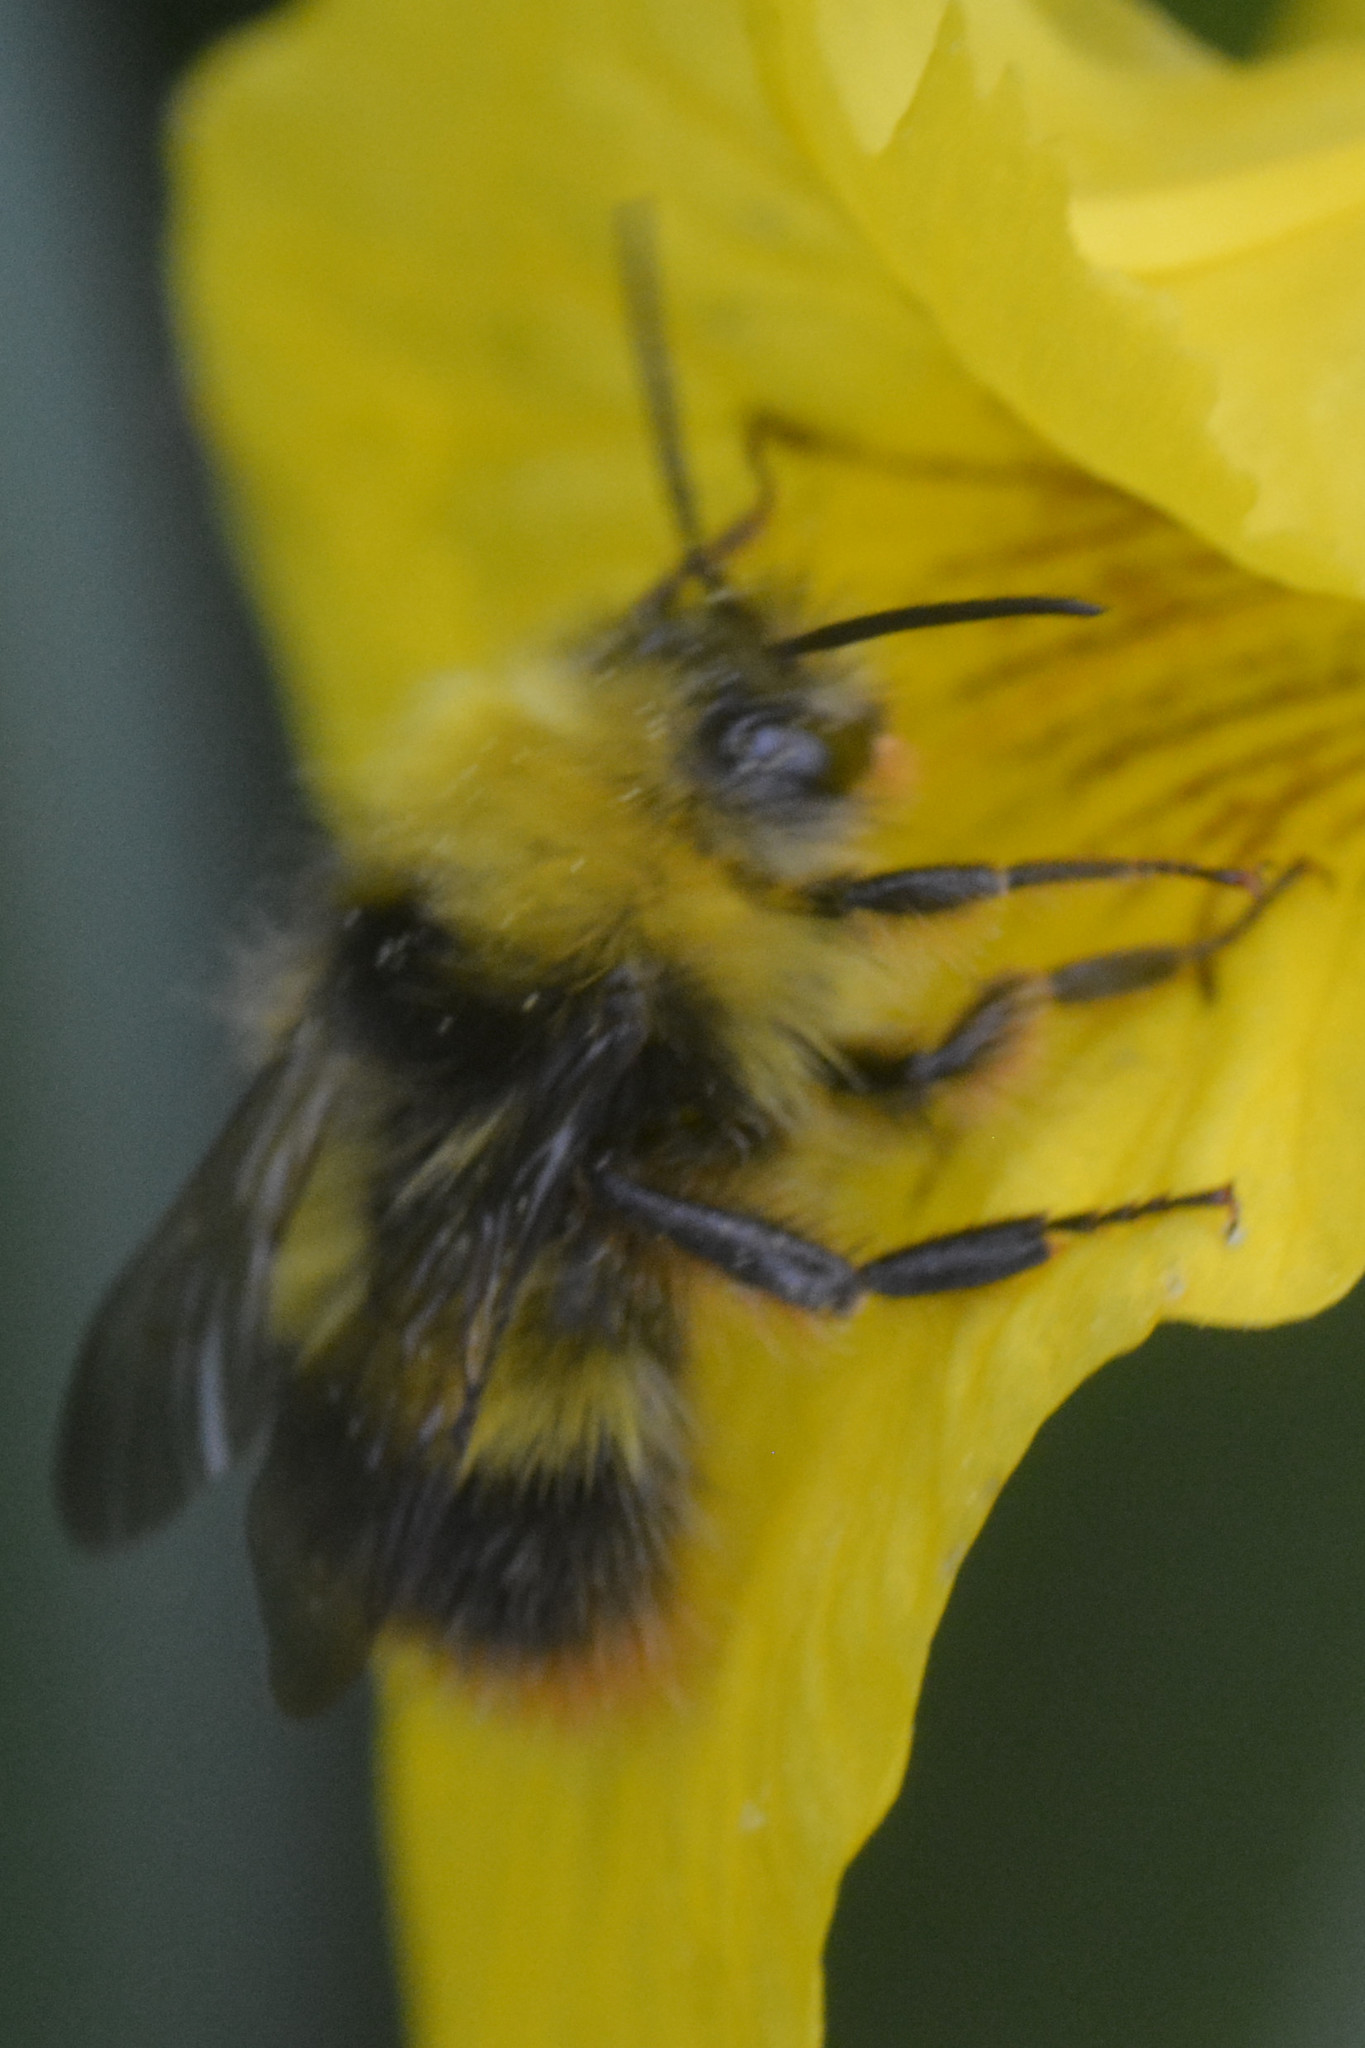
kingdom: Animalia
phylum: Arthropoda
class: Insecta
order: Hymenoptera
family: Apidae
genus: Bombus
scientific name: Bombus pratorum
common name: Early humble-bee
